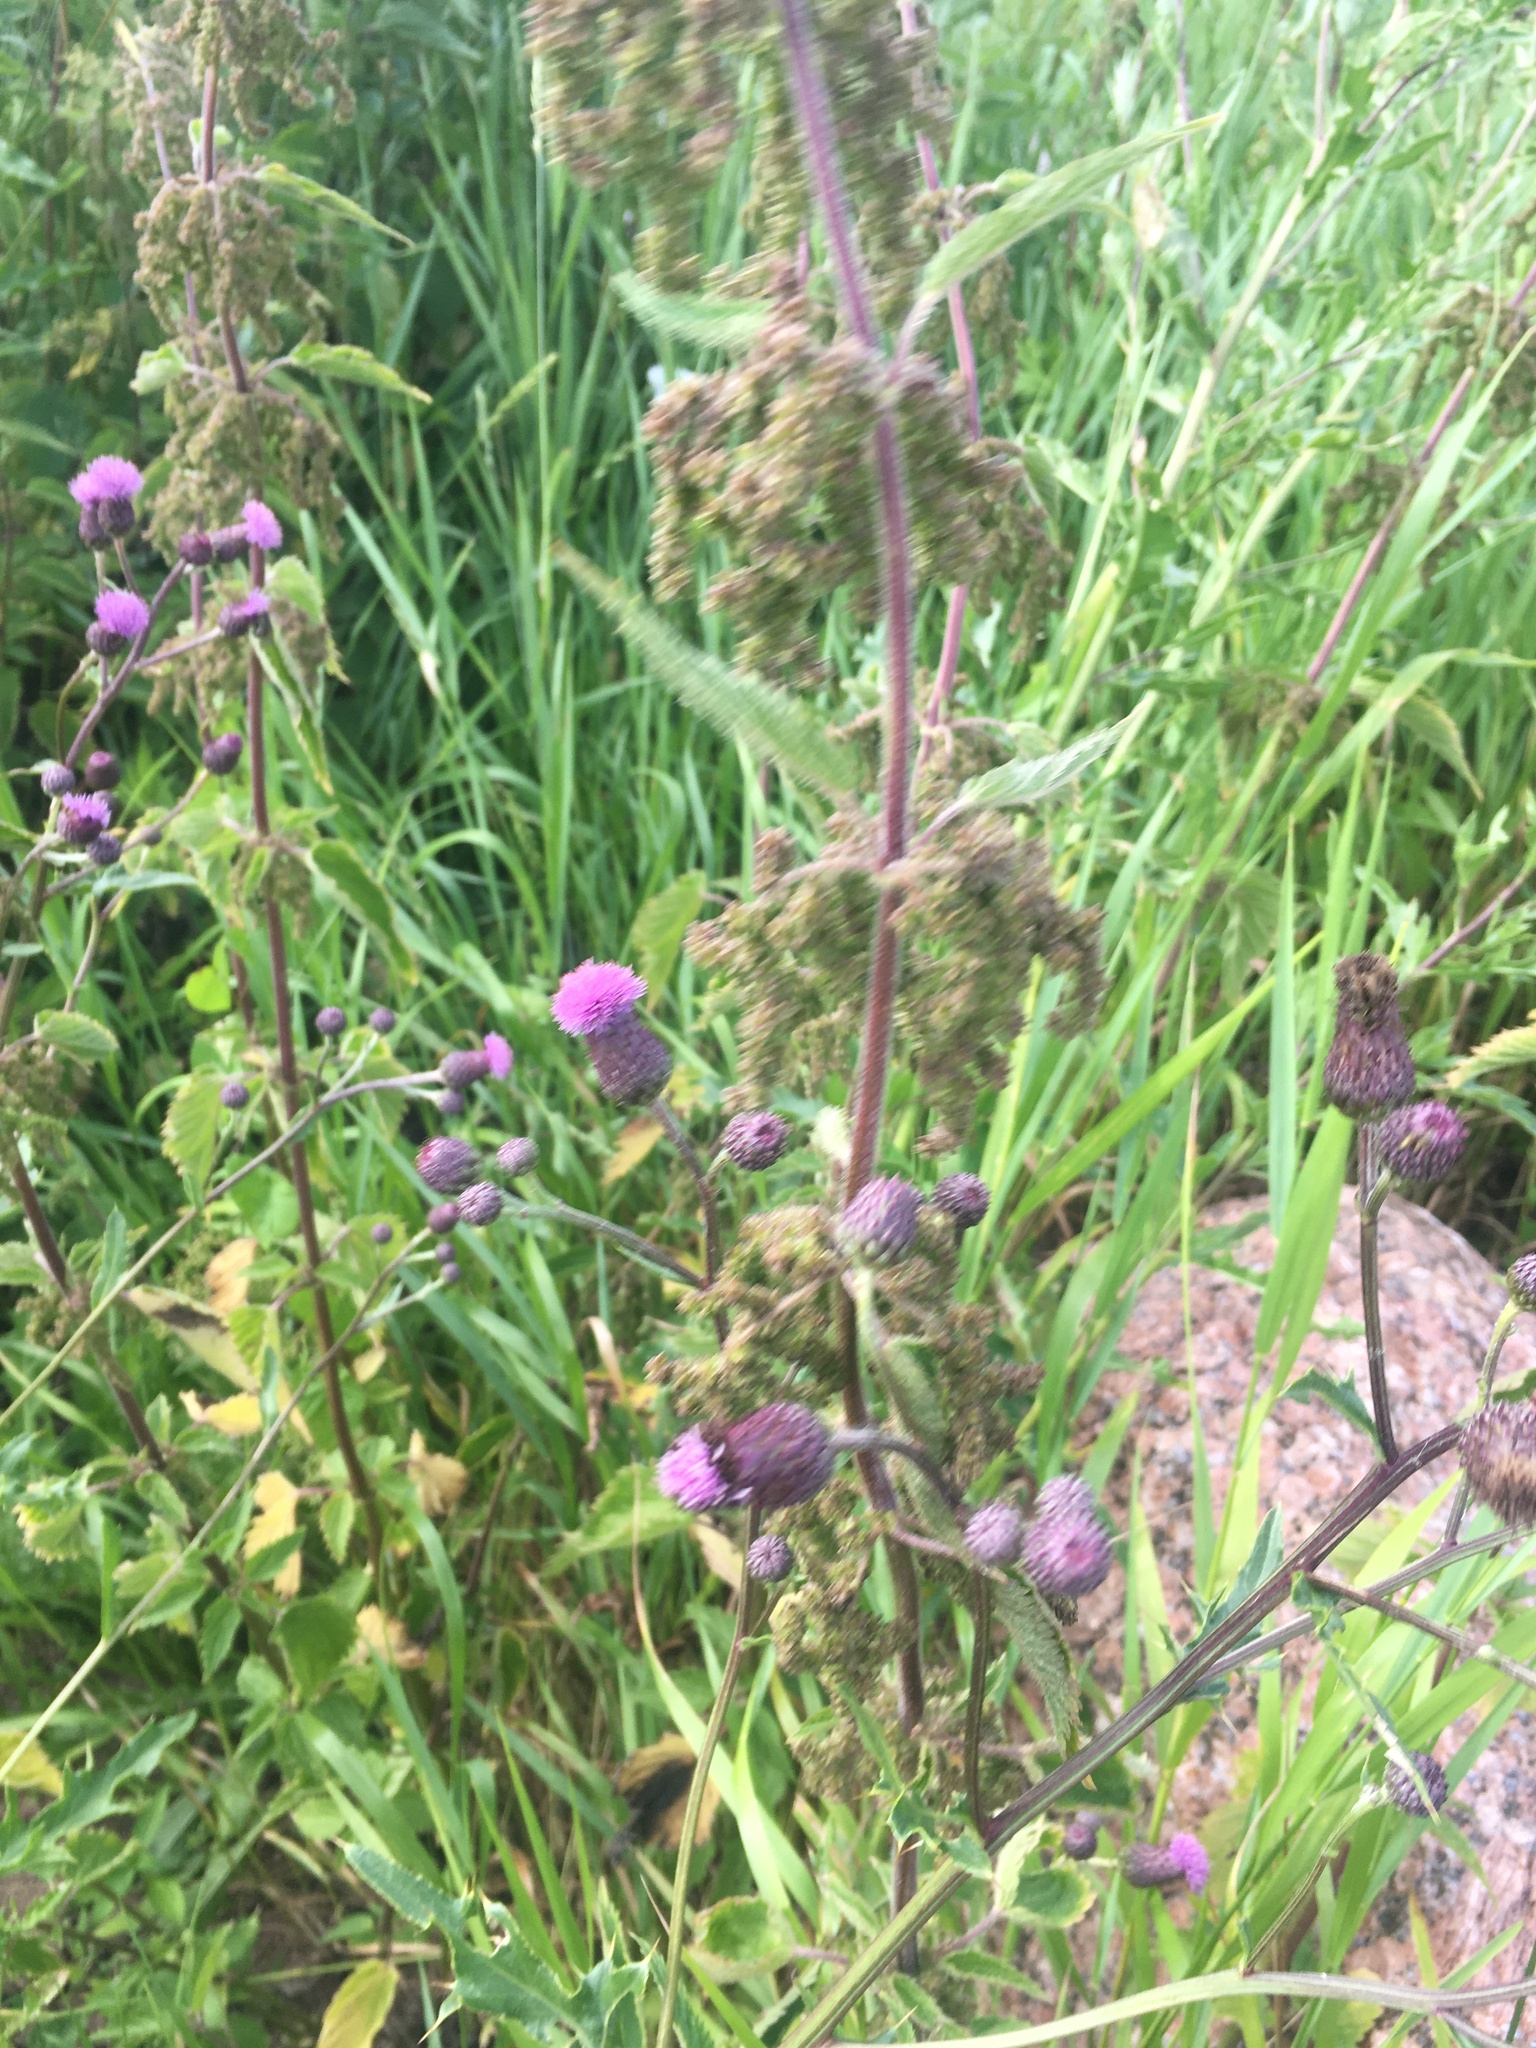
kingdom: Plantae
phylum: Tracheophyta
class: Magnoliopsida
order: Asterales
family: Asteraceae
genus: Cirsium
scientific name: Cirsium arvense
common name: Creeping thistle
